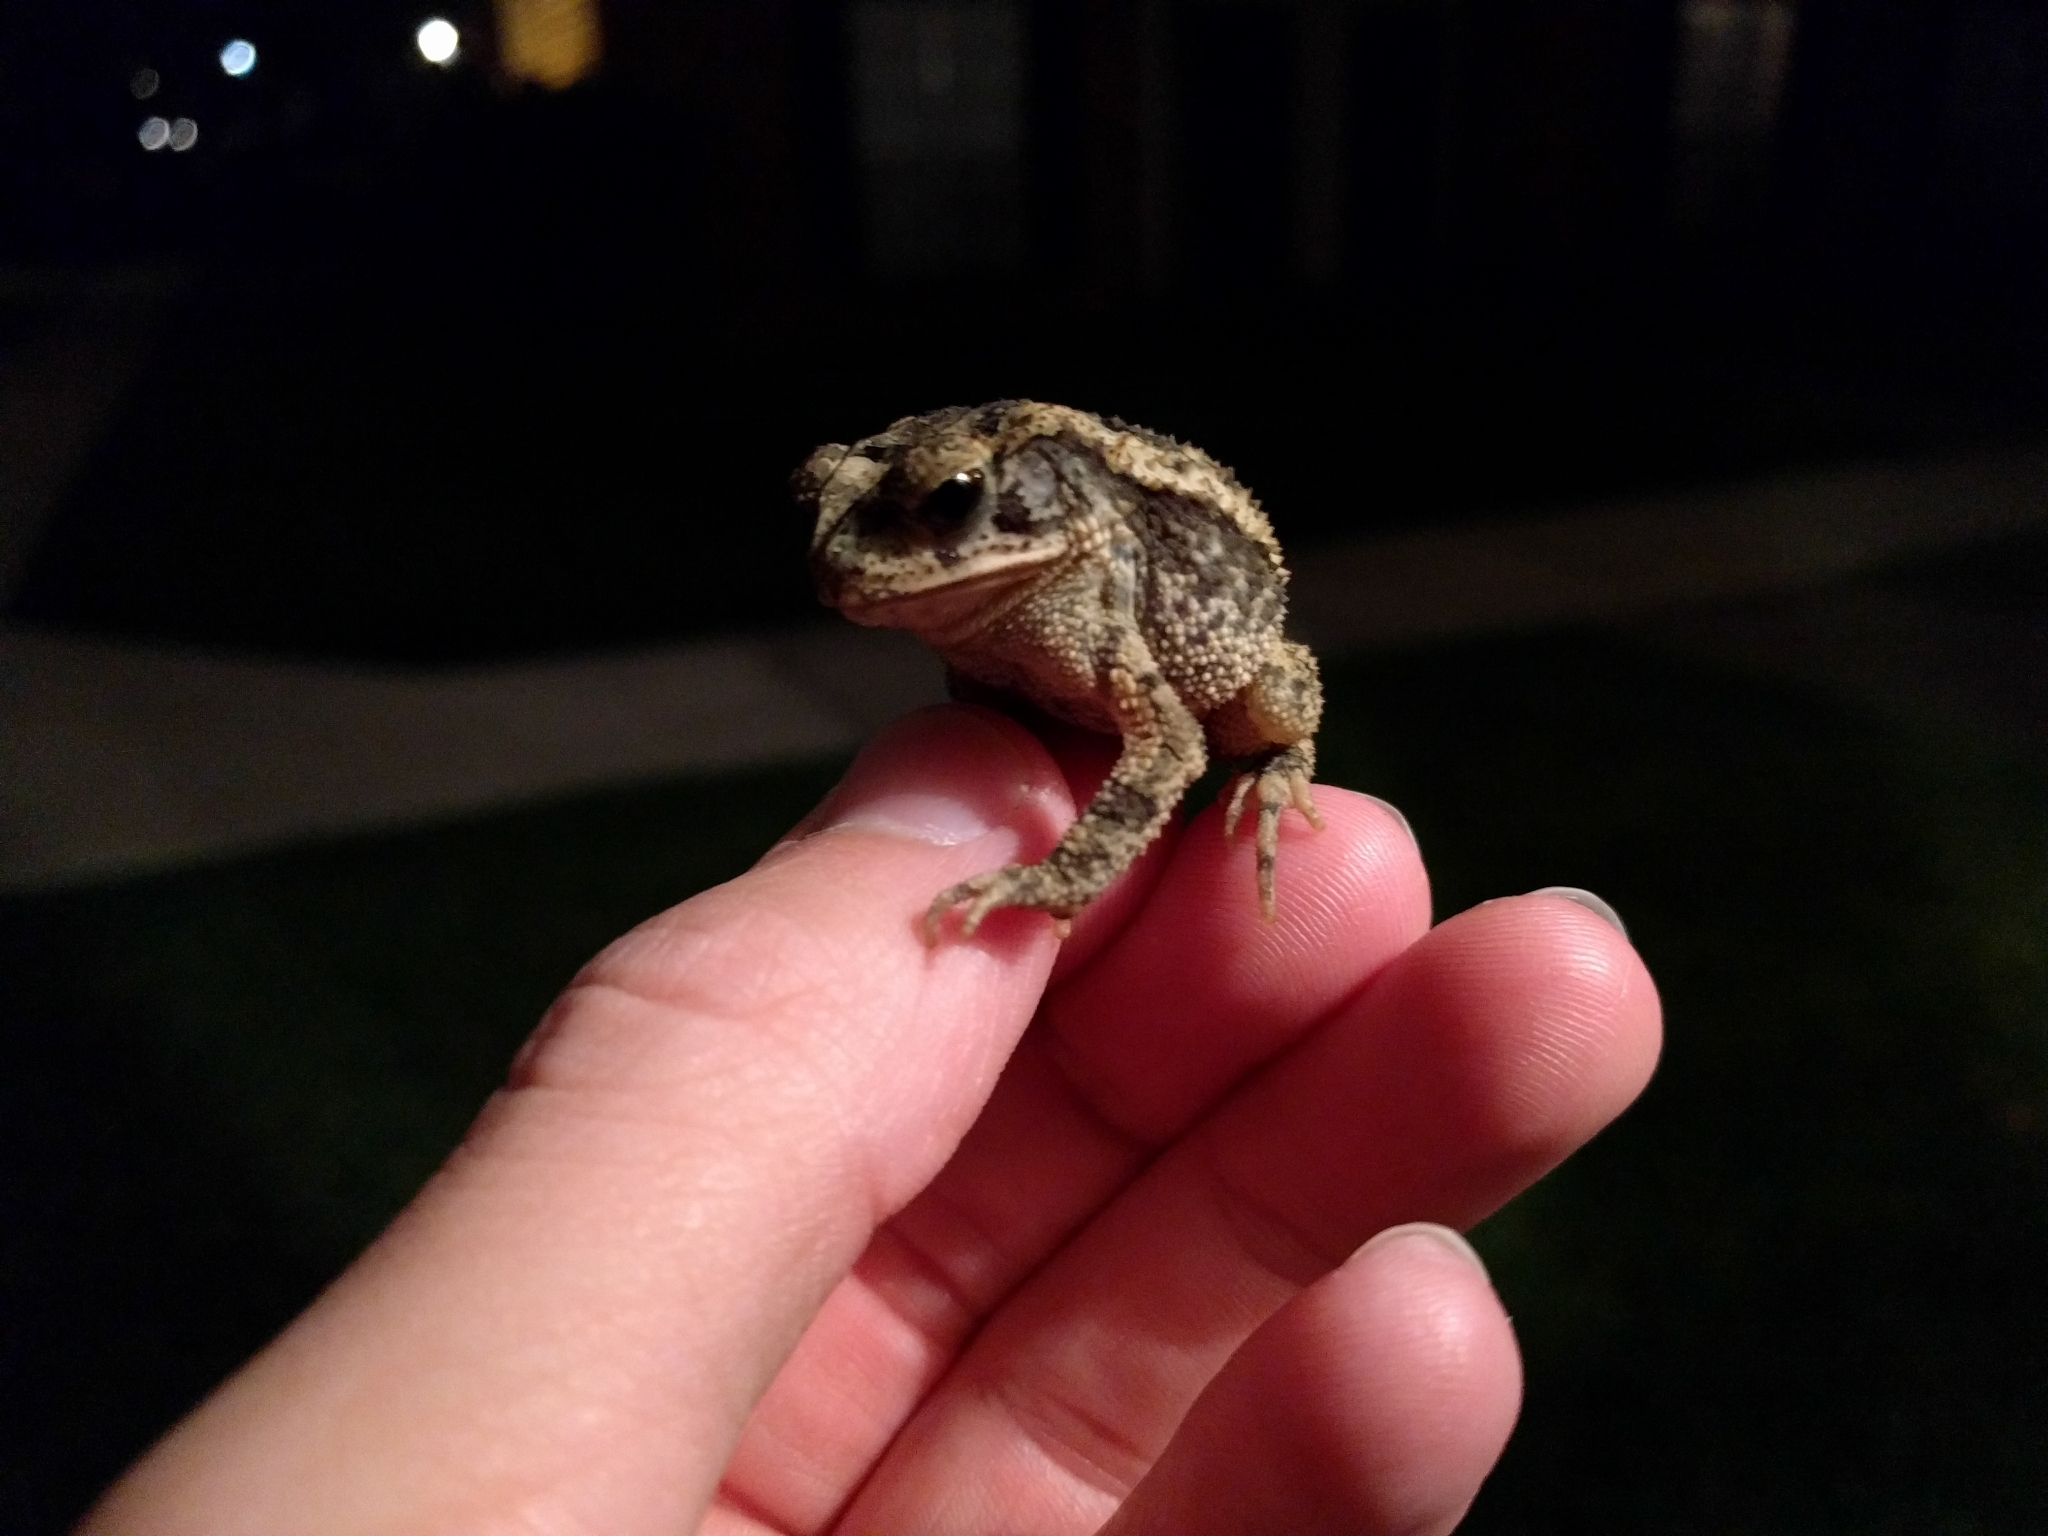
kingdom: Animalia
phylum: Chordata
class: Amphibia
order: Anura
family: Bufonidae
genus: Incilius
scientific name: Incilius nebulifer
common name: Gulf coast toad
